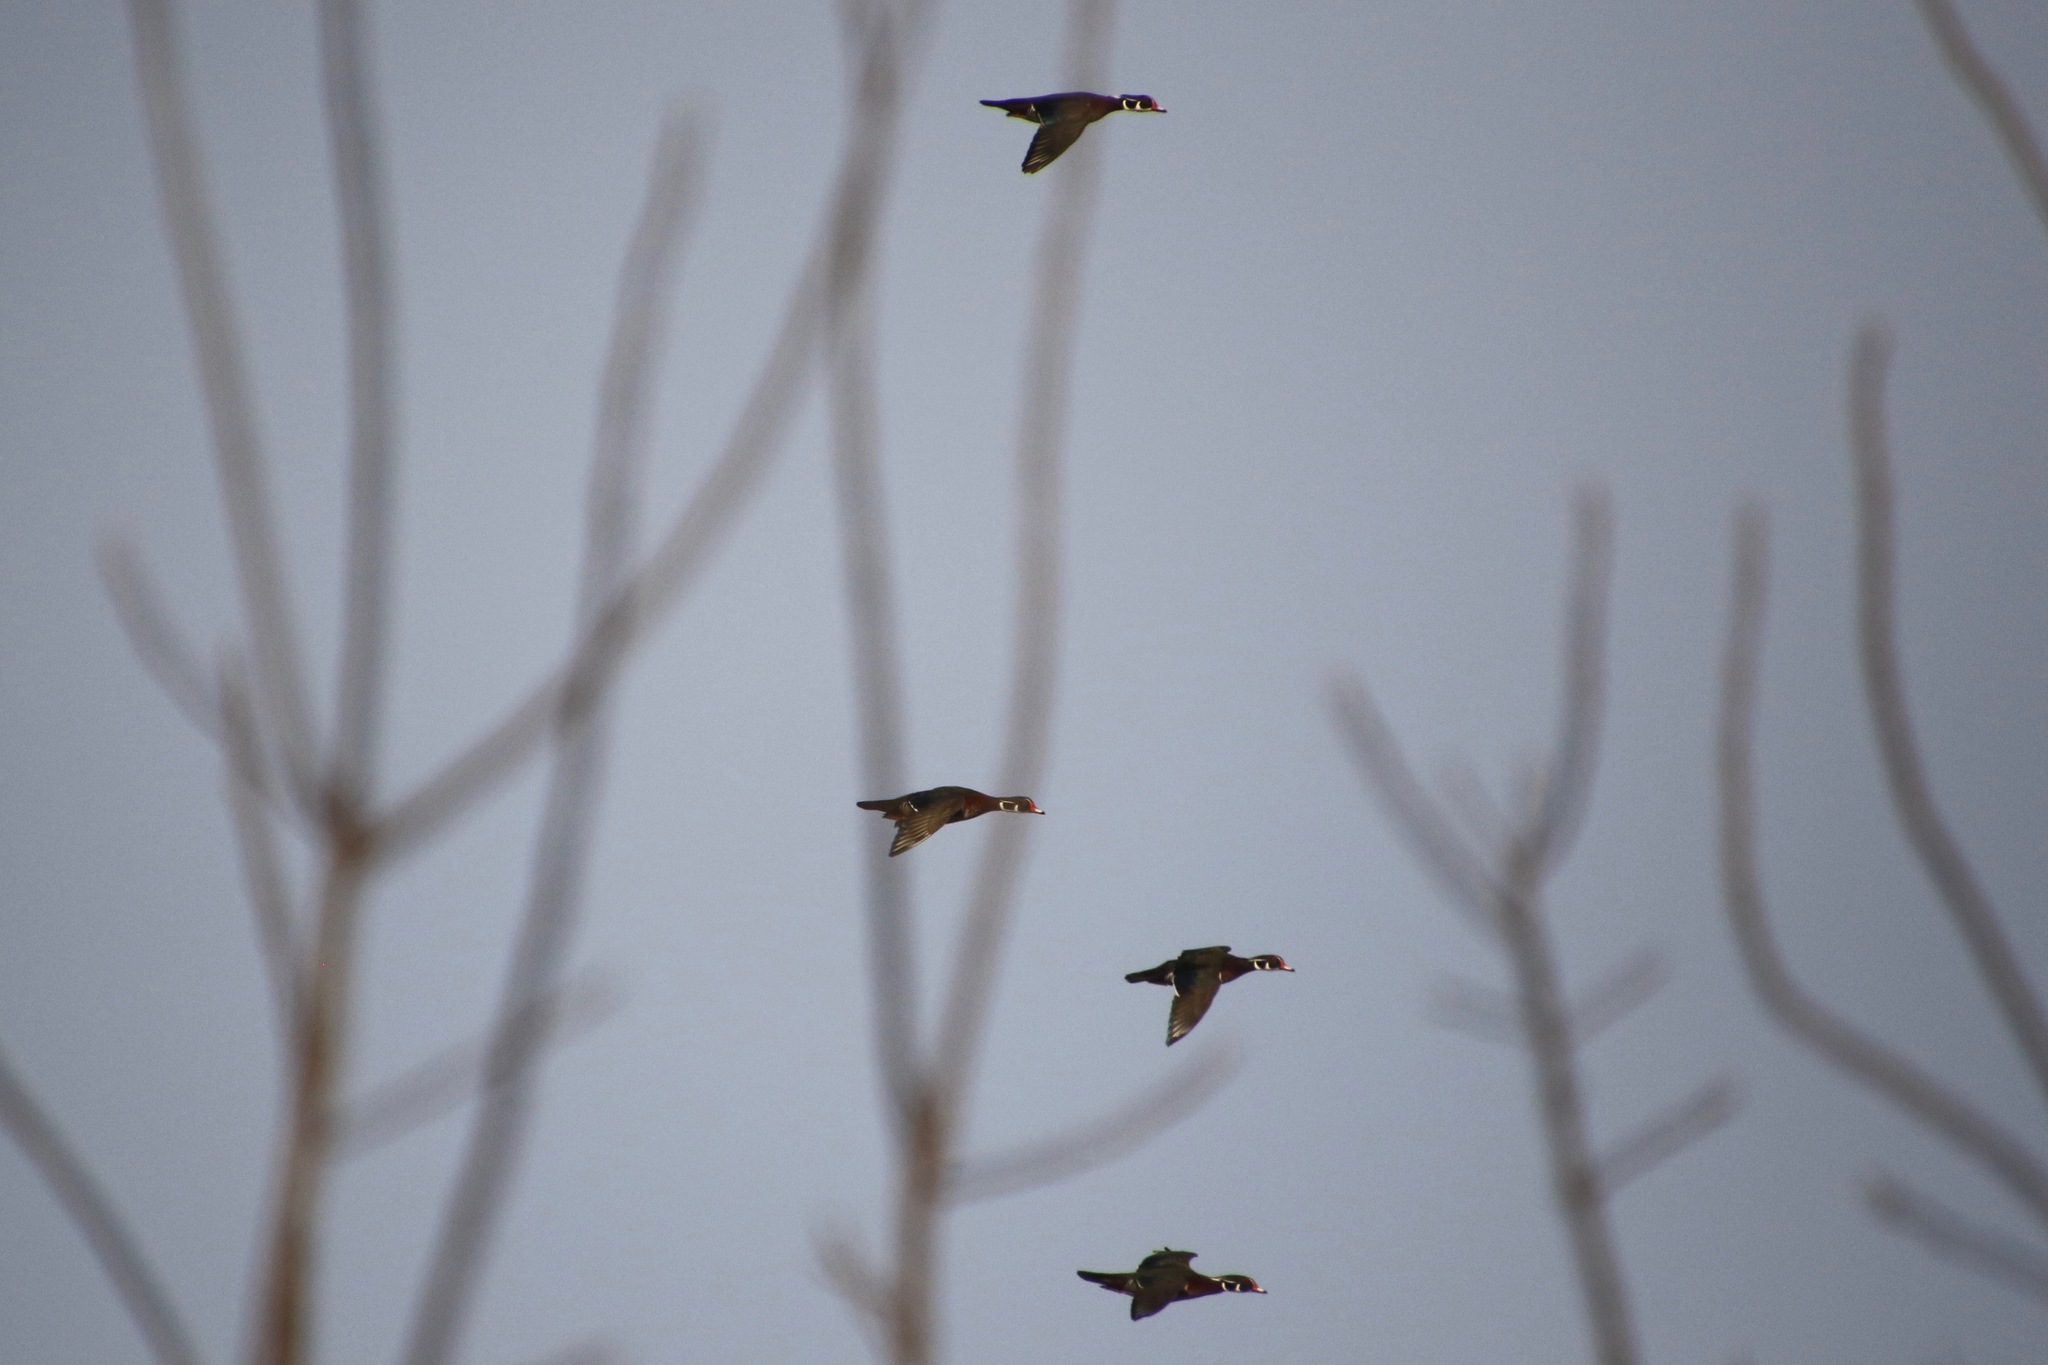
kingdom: Animalia
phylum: Chordata
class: Aves
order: Anseriformes
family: Anatidae
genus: Aix
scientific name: Aix sponsa
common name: Wood duck
